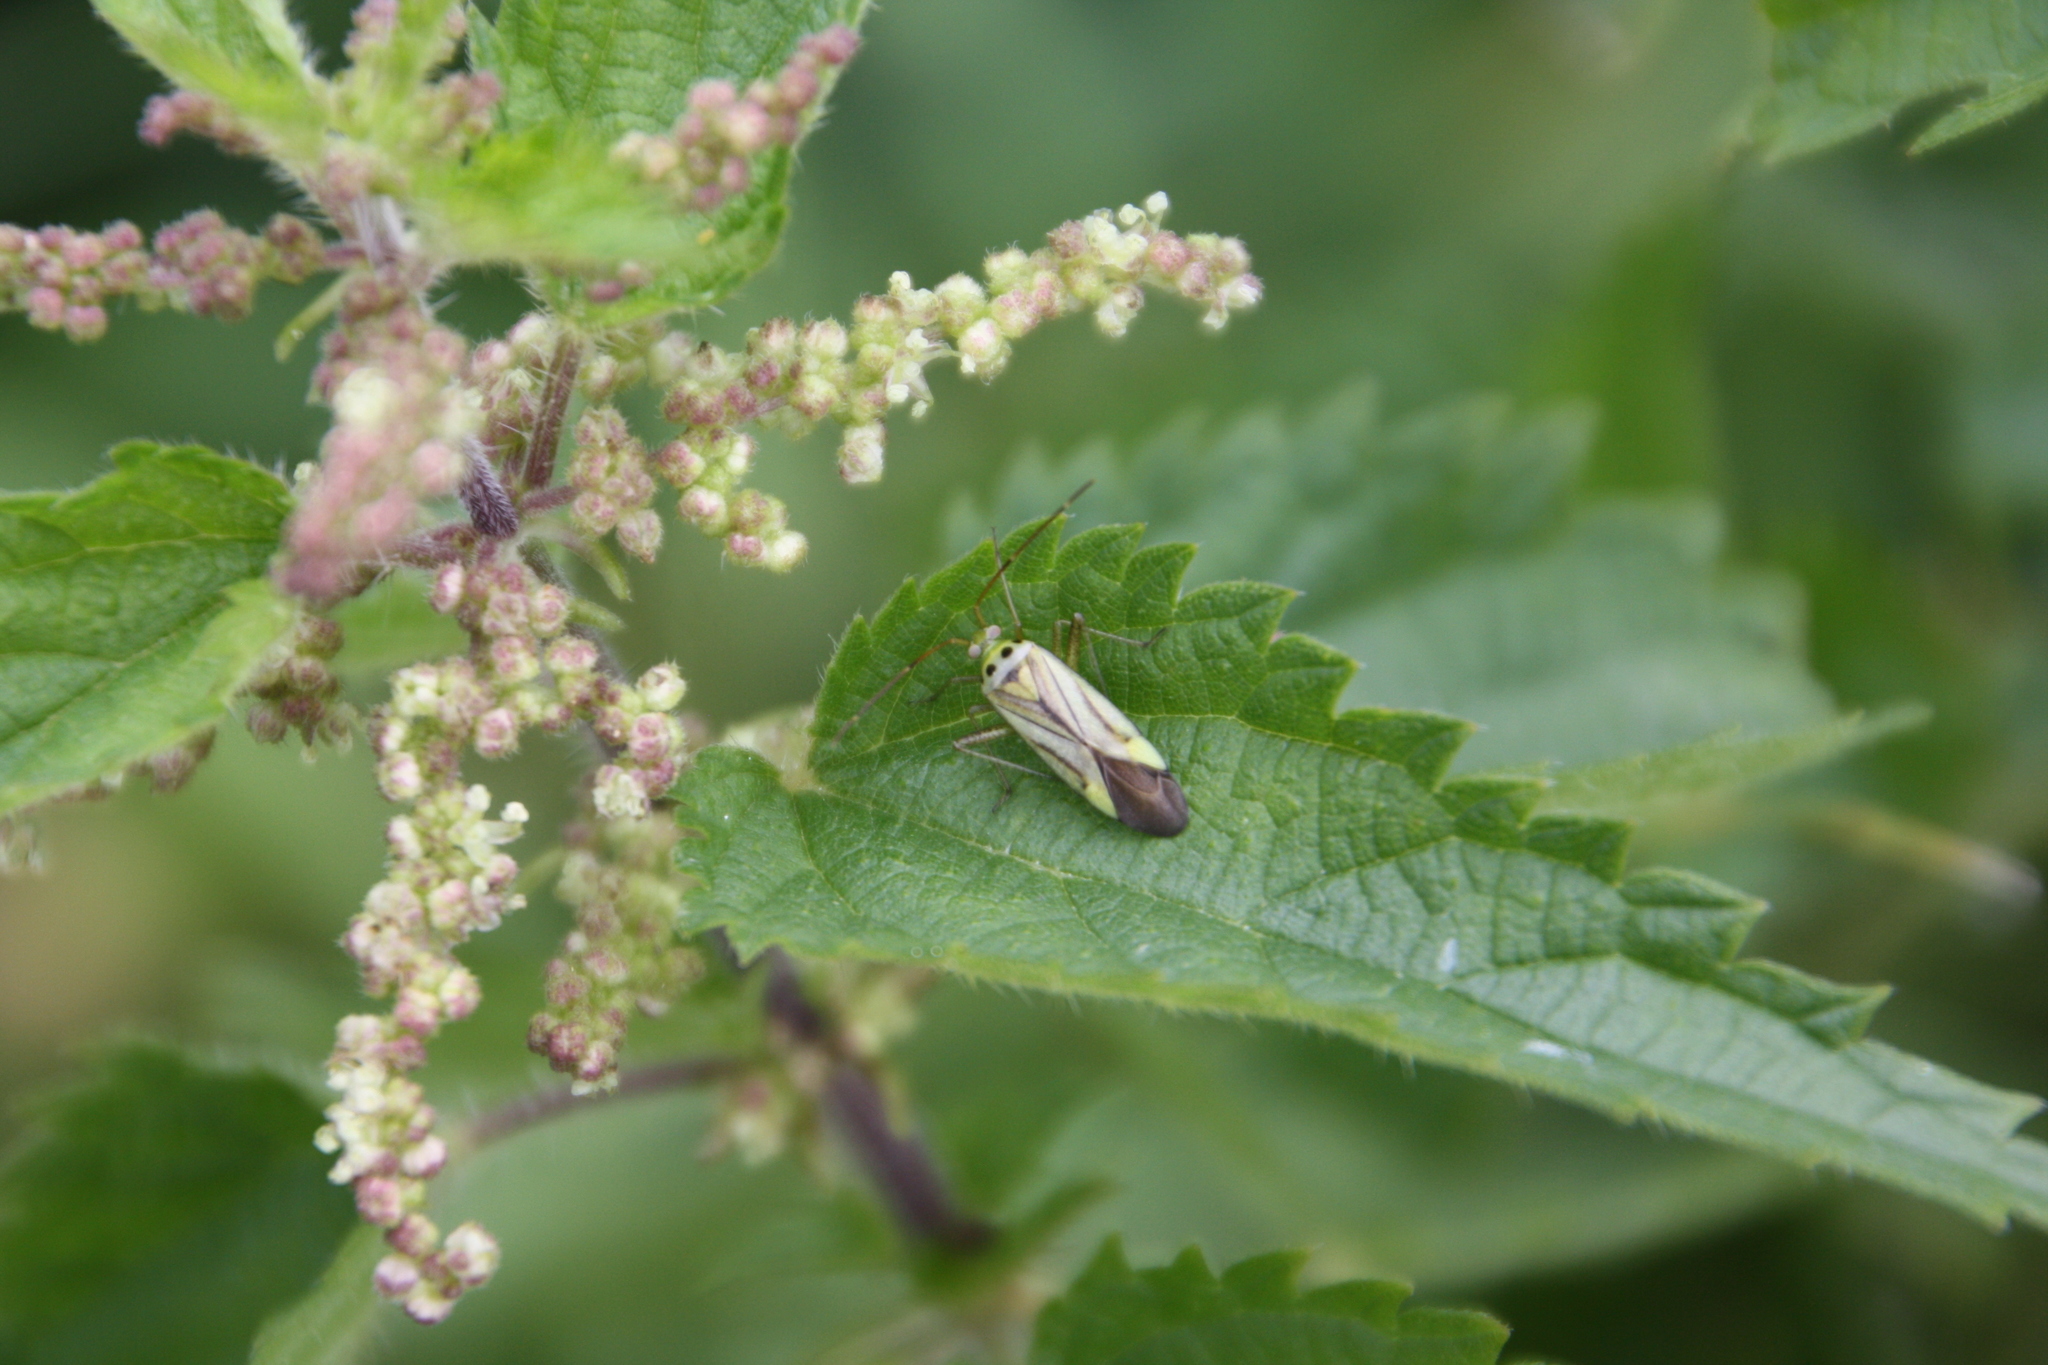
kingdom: Animalia
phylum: Arthropoda
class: Insecta
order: Hemiptera
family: Miridae
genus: Adelphocoris
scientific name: Adelphocoris quadripunctatus
